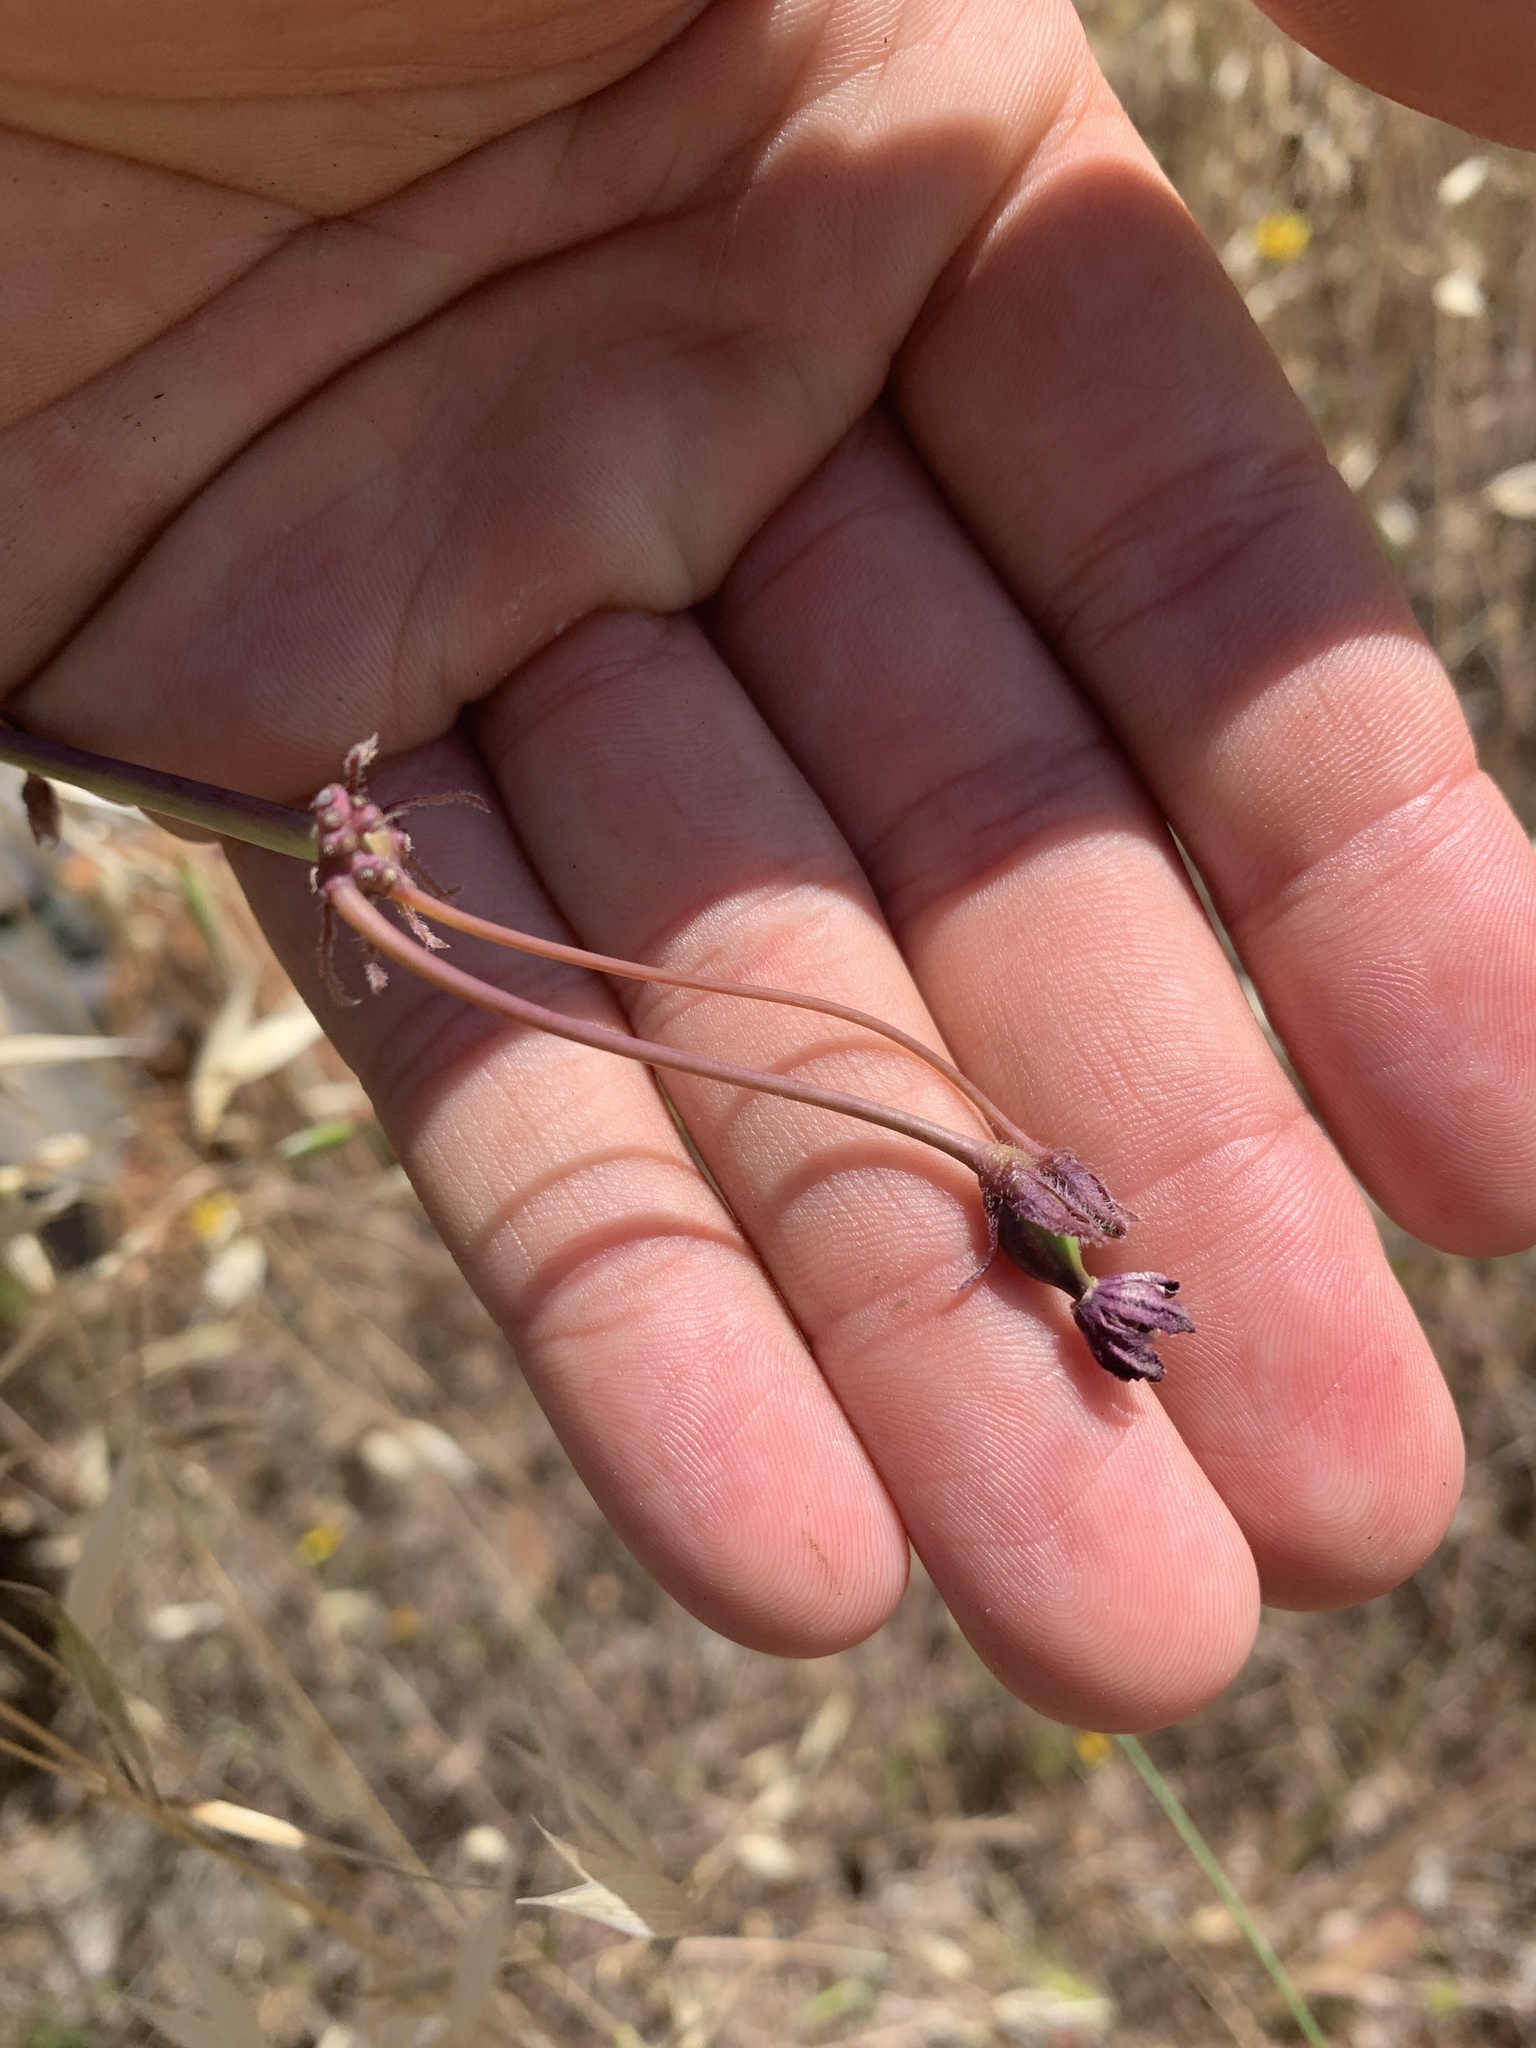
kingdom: Plantae
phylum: Tracheophyta
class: Magnoliopsida
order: Gentianales
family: Apocynaceae
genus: Asclepias
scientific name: Asclepias cordifolia
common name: Purple milkweed
